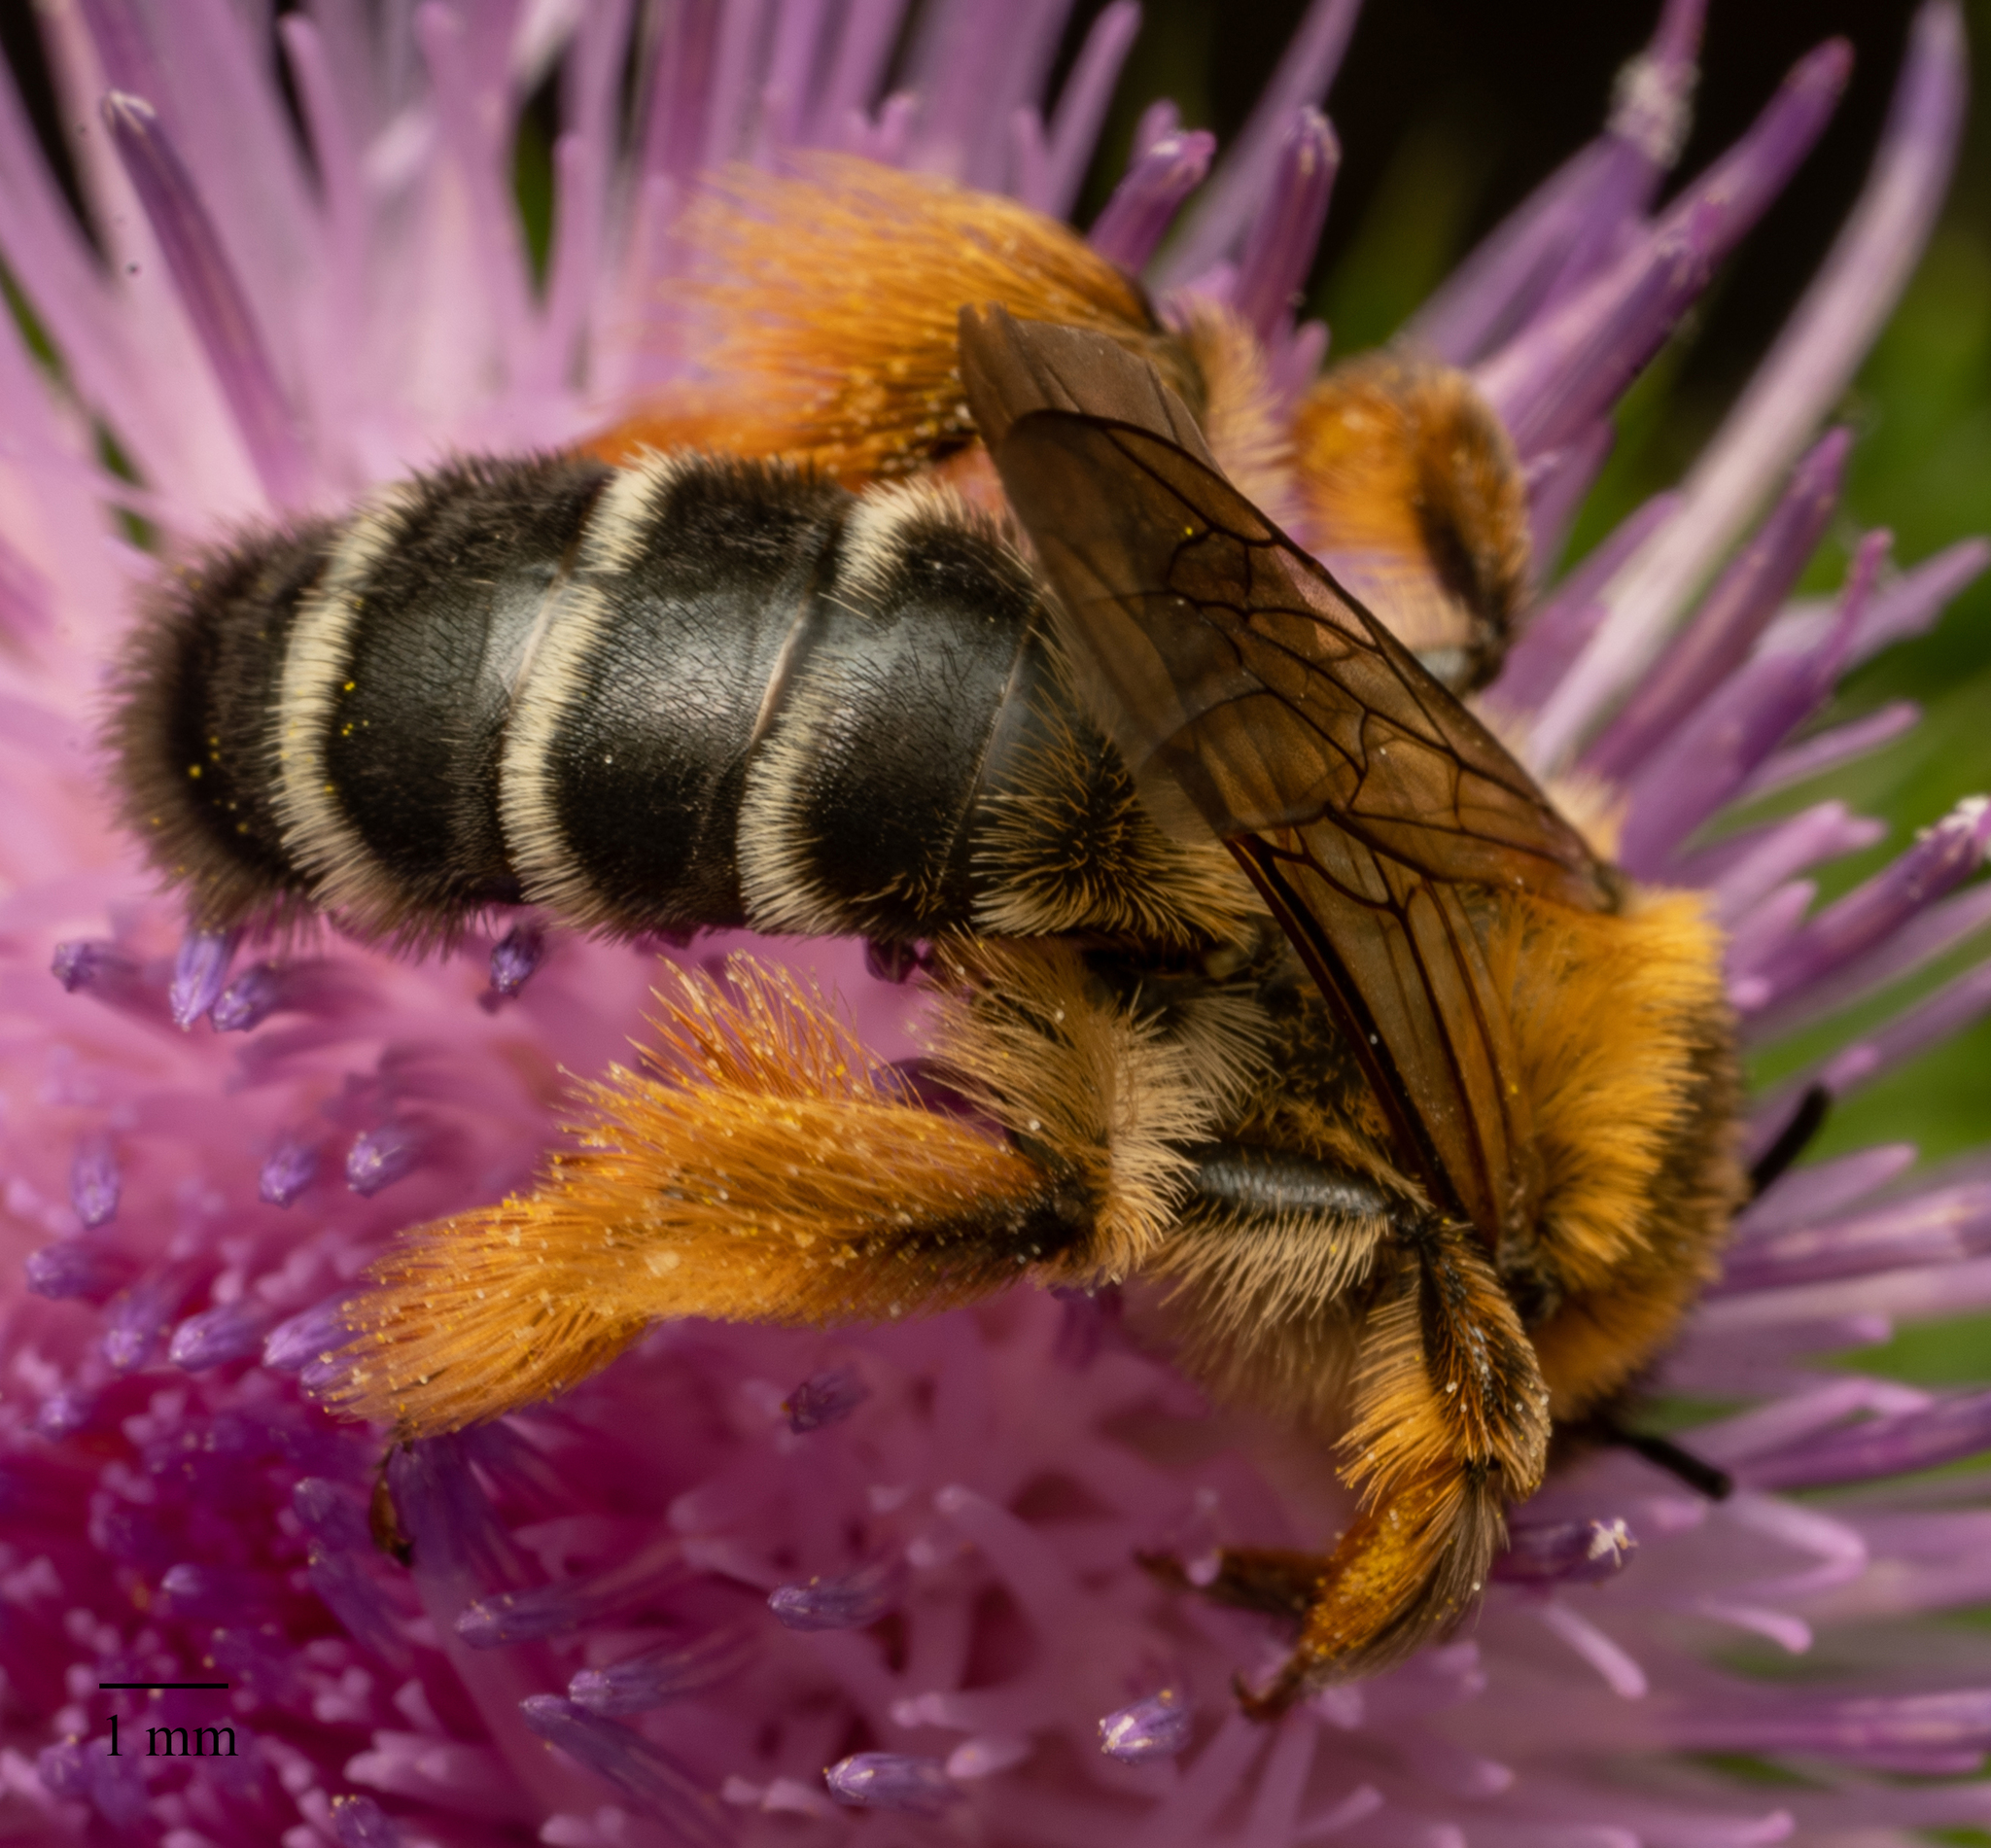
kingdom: Animalia
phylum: Arthropoda
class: Insecta
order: Hymenoptera
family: Melittidae
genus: Dasypoda
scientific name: Dasypoda hirtipes
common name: Pantaloon bee
